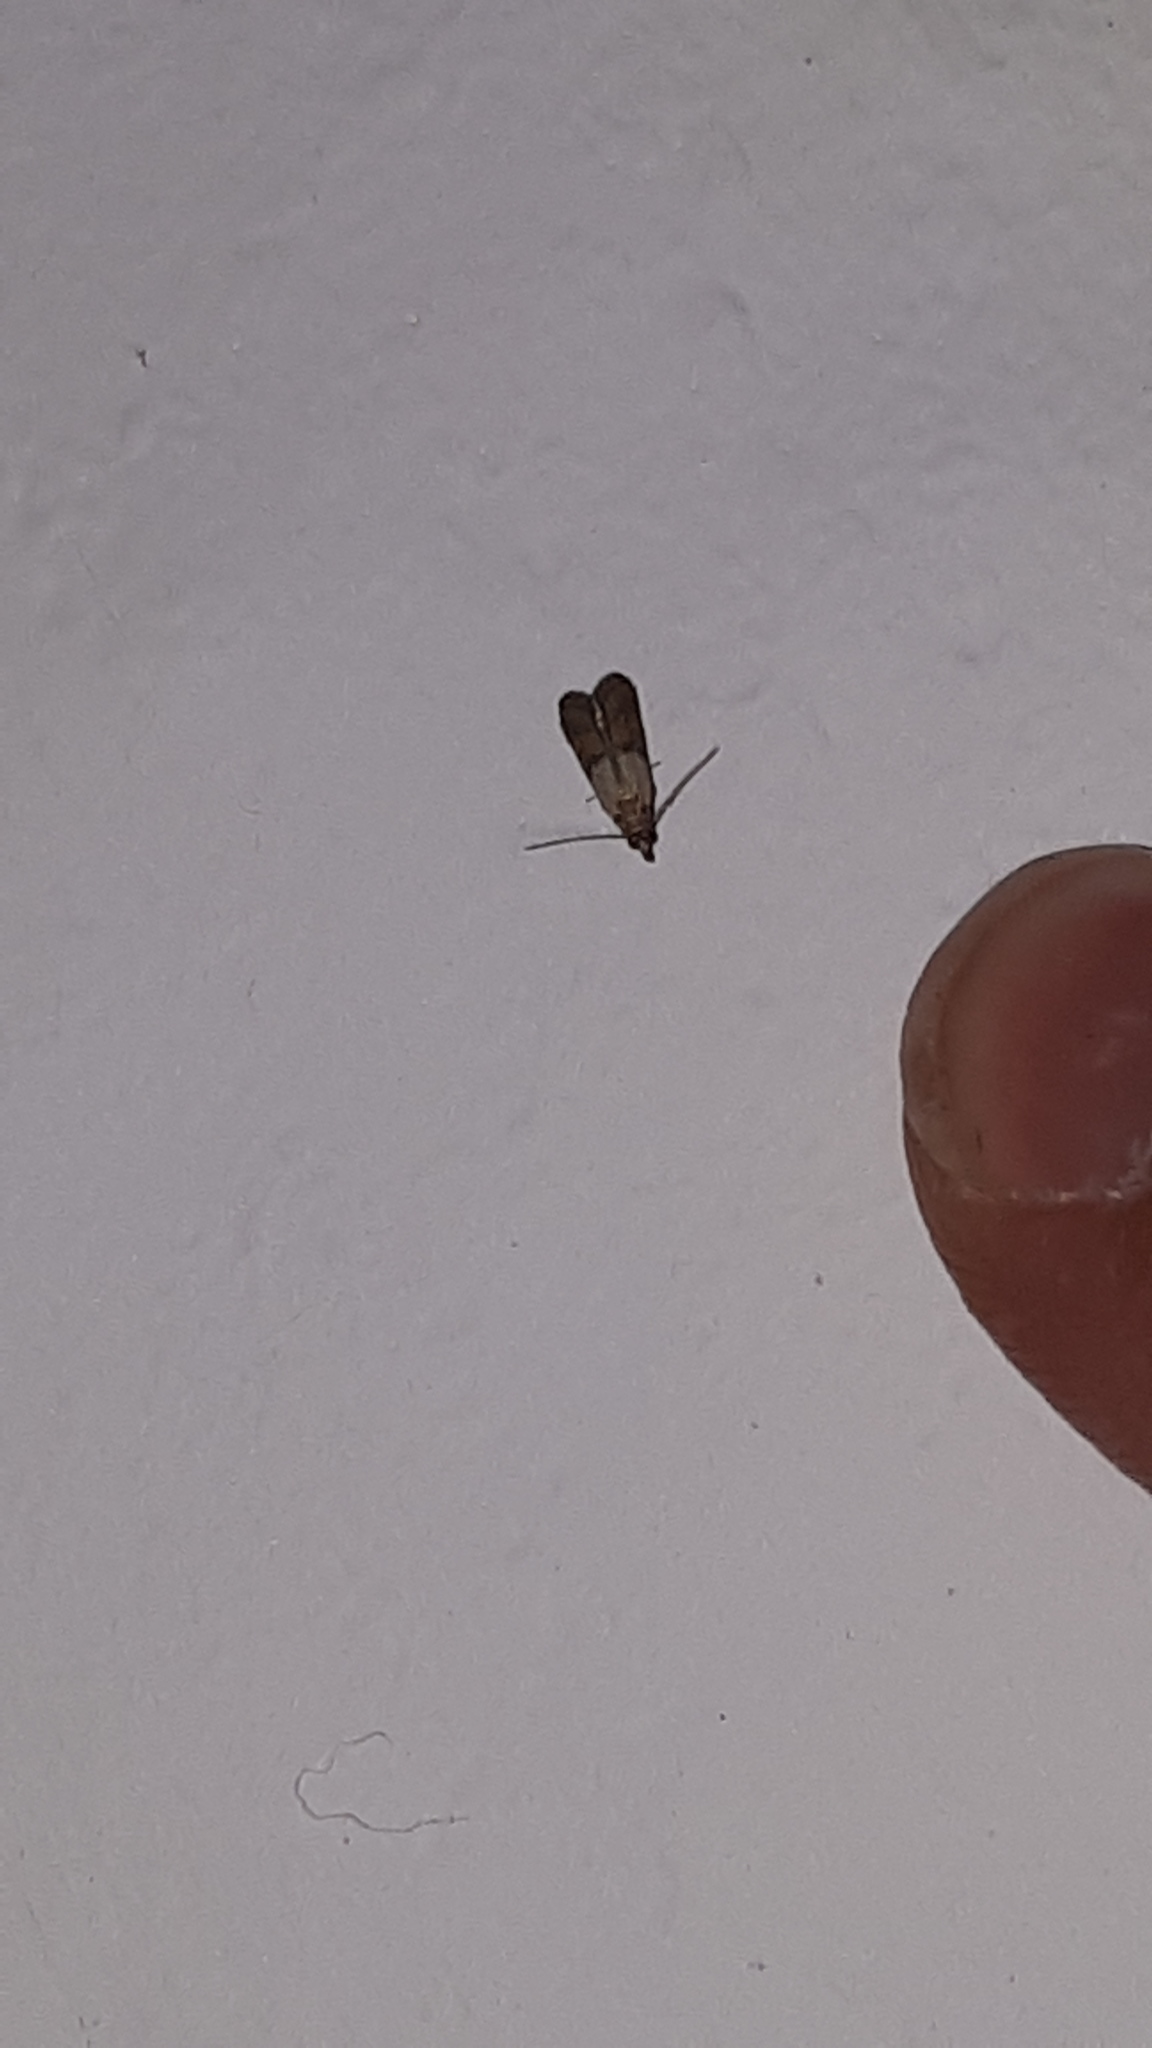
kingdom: Animalia
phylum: Arthropoda
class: Insecta
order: Lepidoptera
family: Pyralidae
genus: Plodia
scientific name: Plodia interpunctella
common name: Indian meal moth
